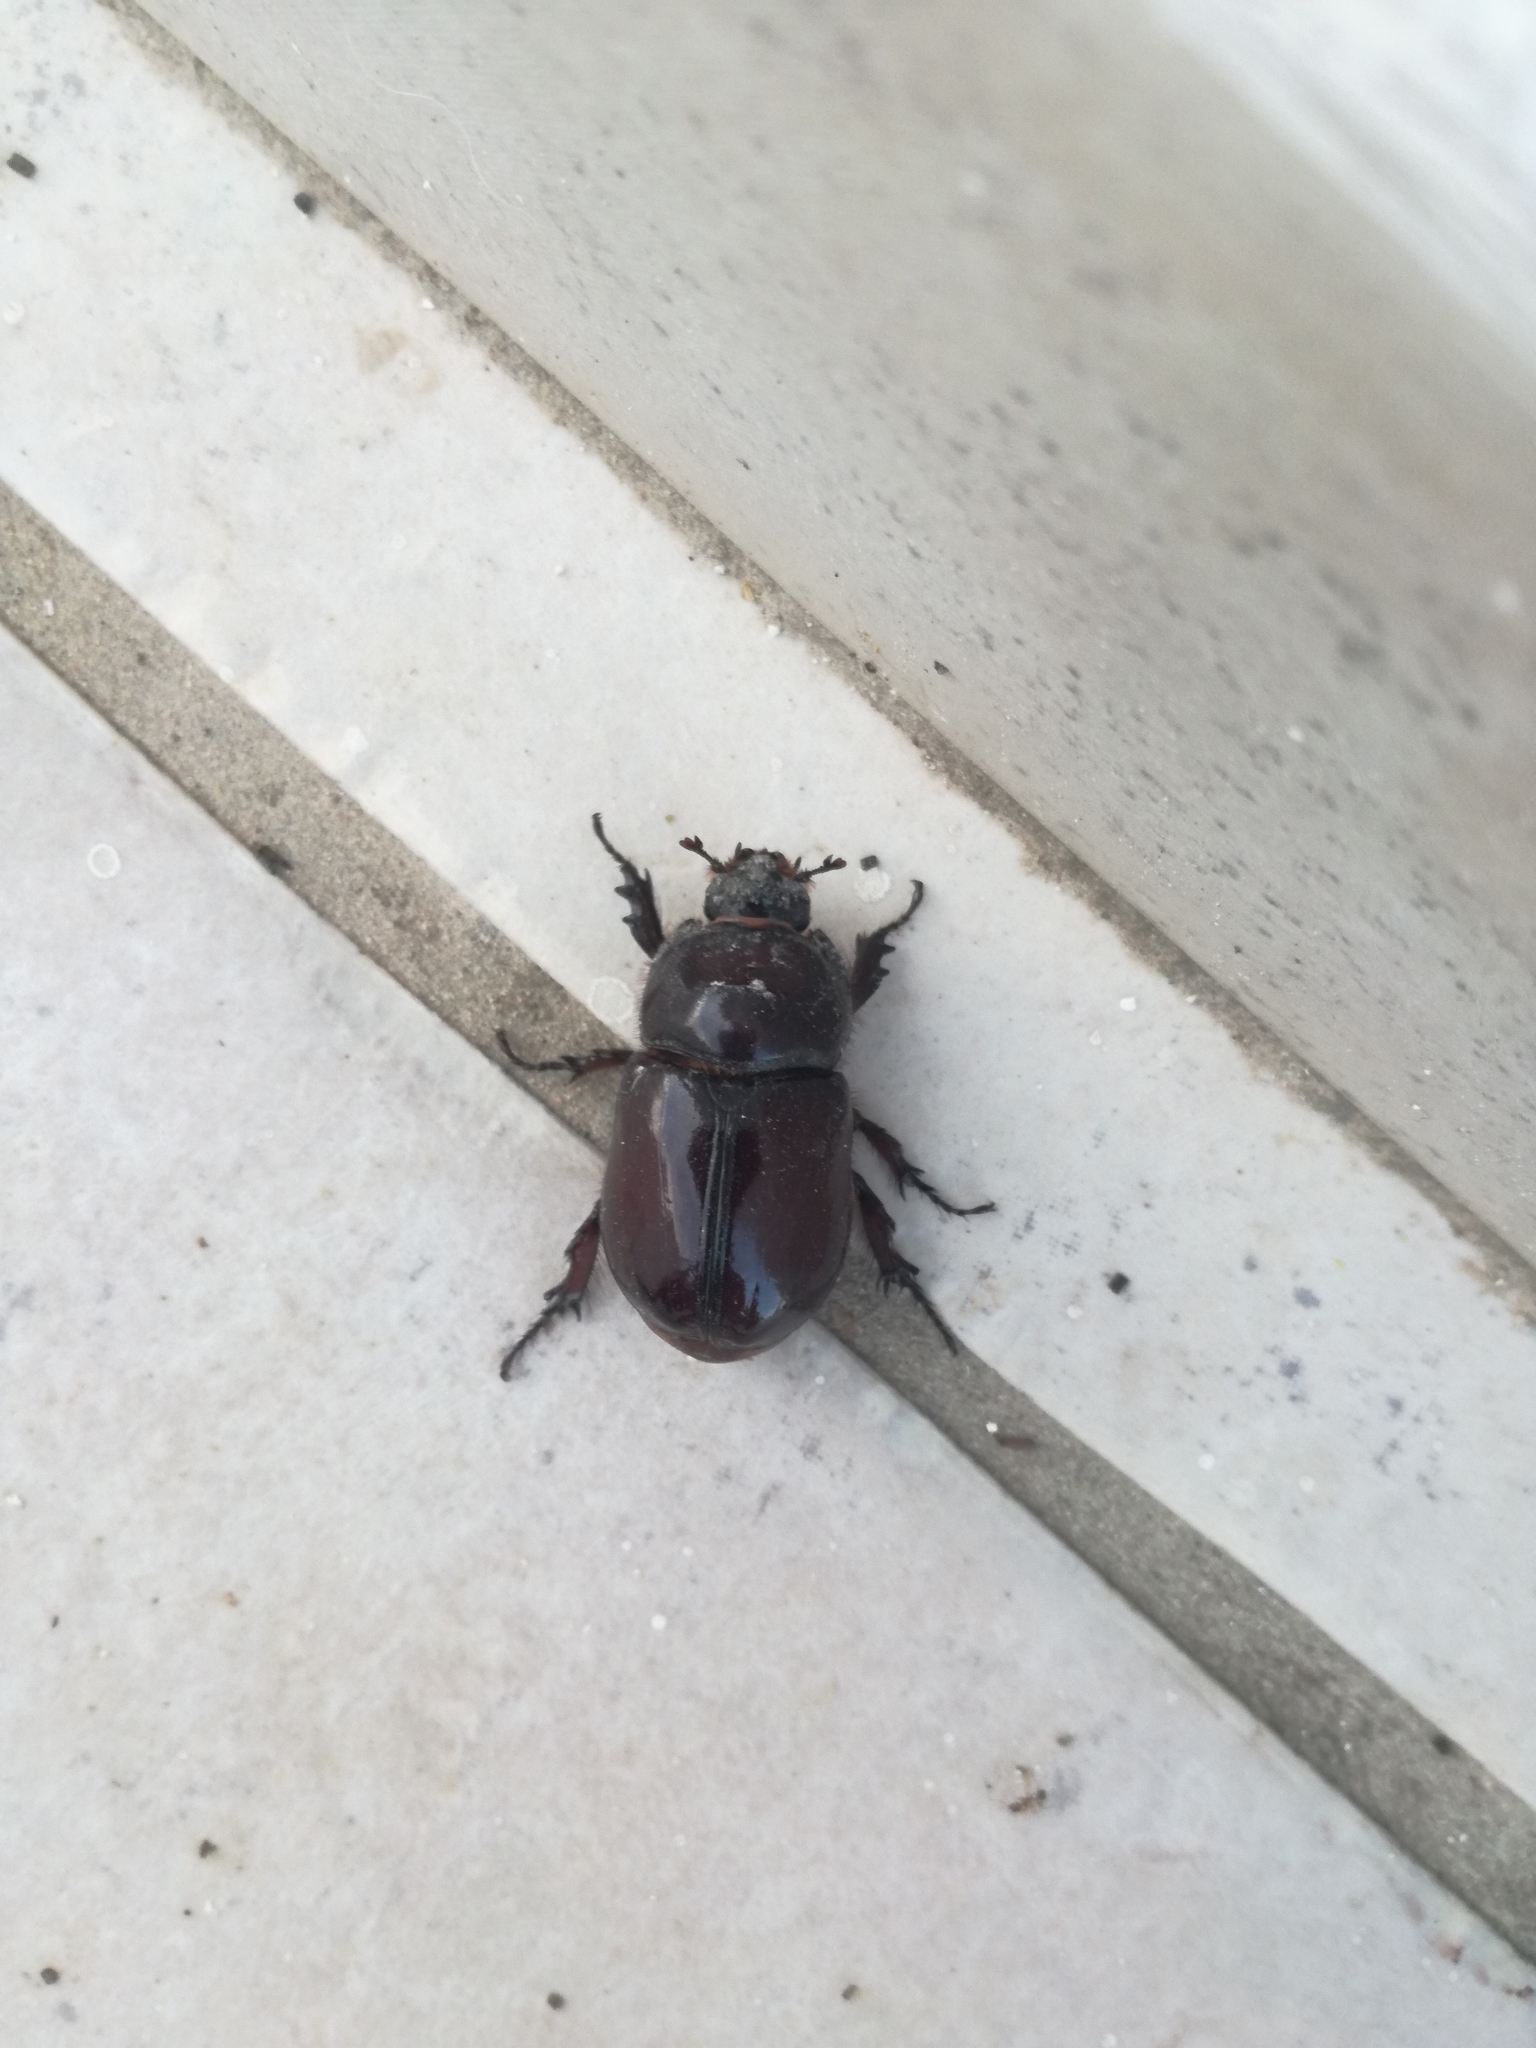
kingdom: Animalia
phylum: Arthropoda
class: Insecta
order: Coleoptera
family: Scarabaeidae
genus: Oryctes
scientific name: Oryctes nasicornis
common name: European rhinoceros beetle
